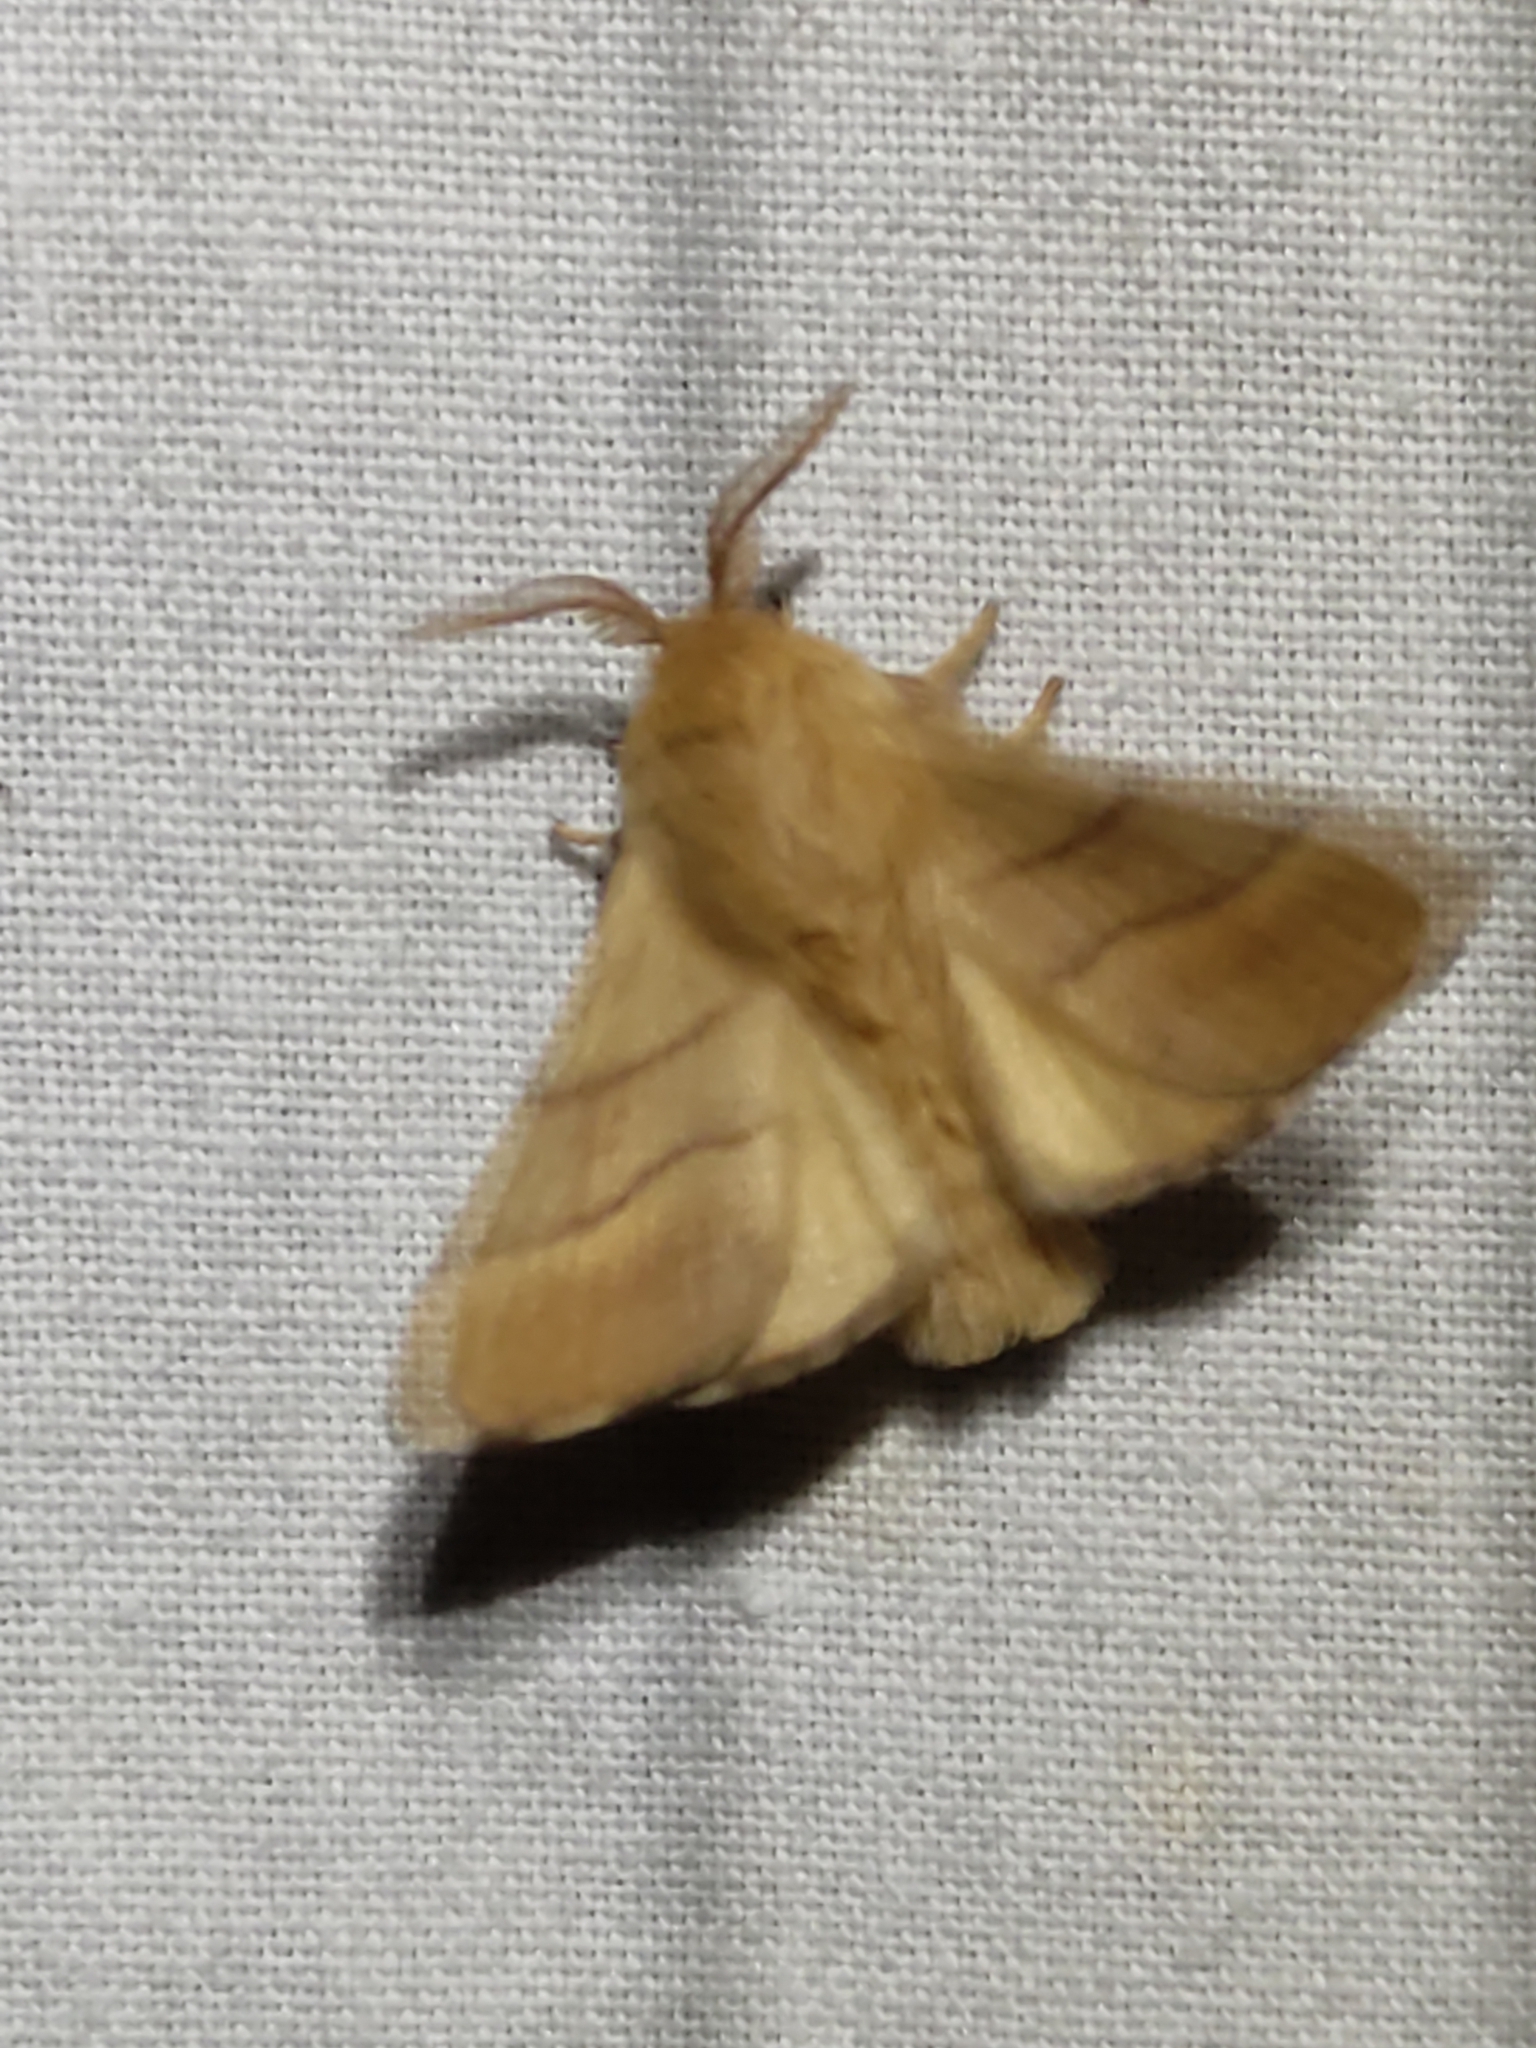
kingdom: Animalia
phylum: Arthropoda
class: Insecta
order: Lepidoptera
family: Lasiocampidae
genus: Malacosoma
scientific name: Malacosoma neustria
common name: The lackey
